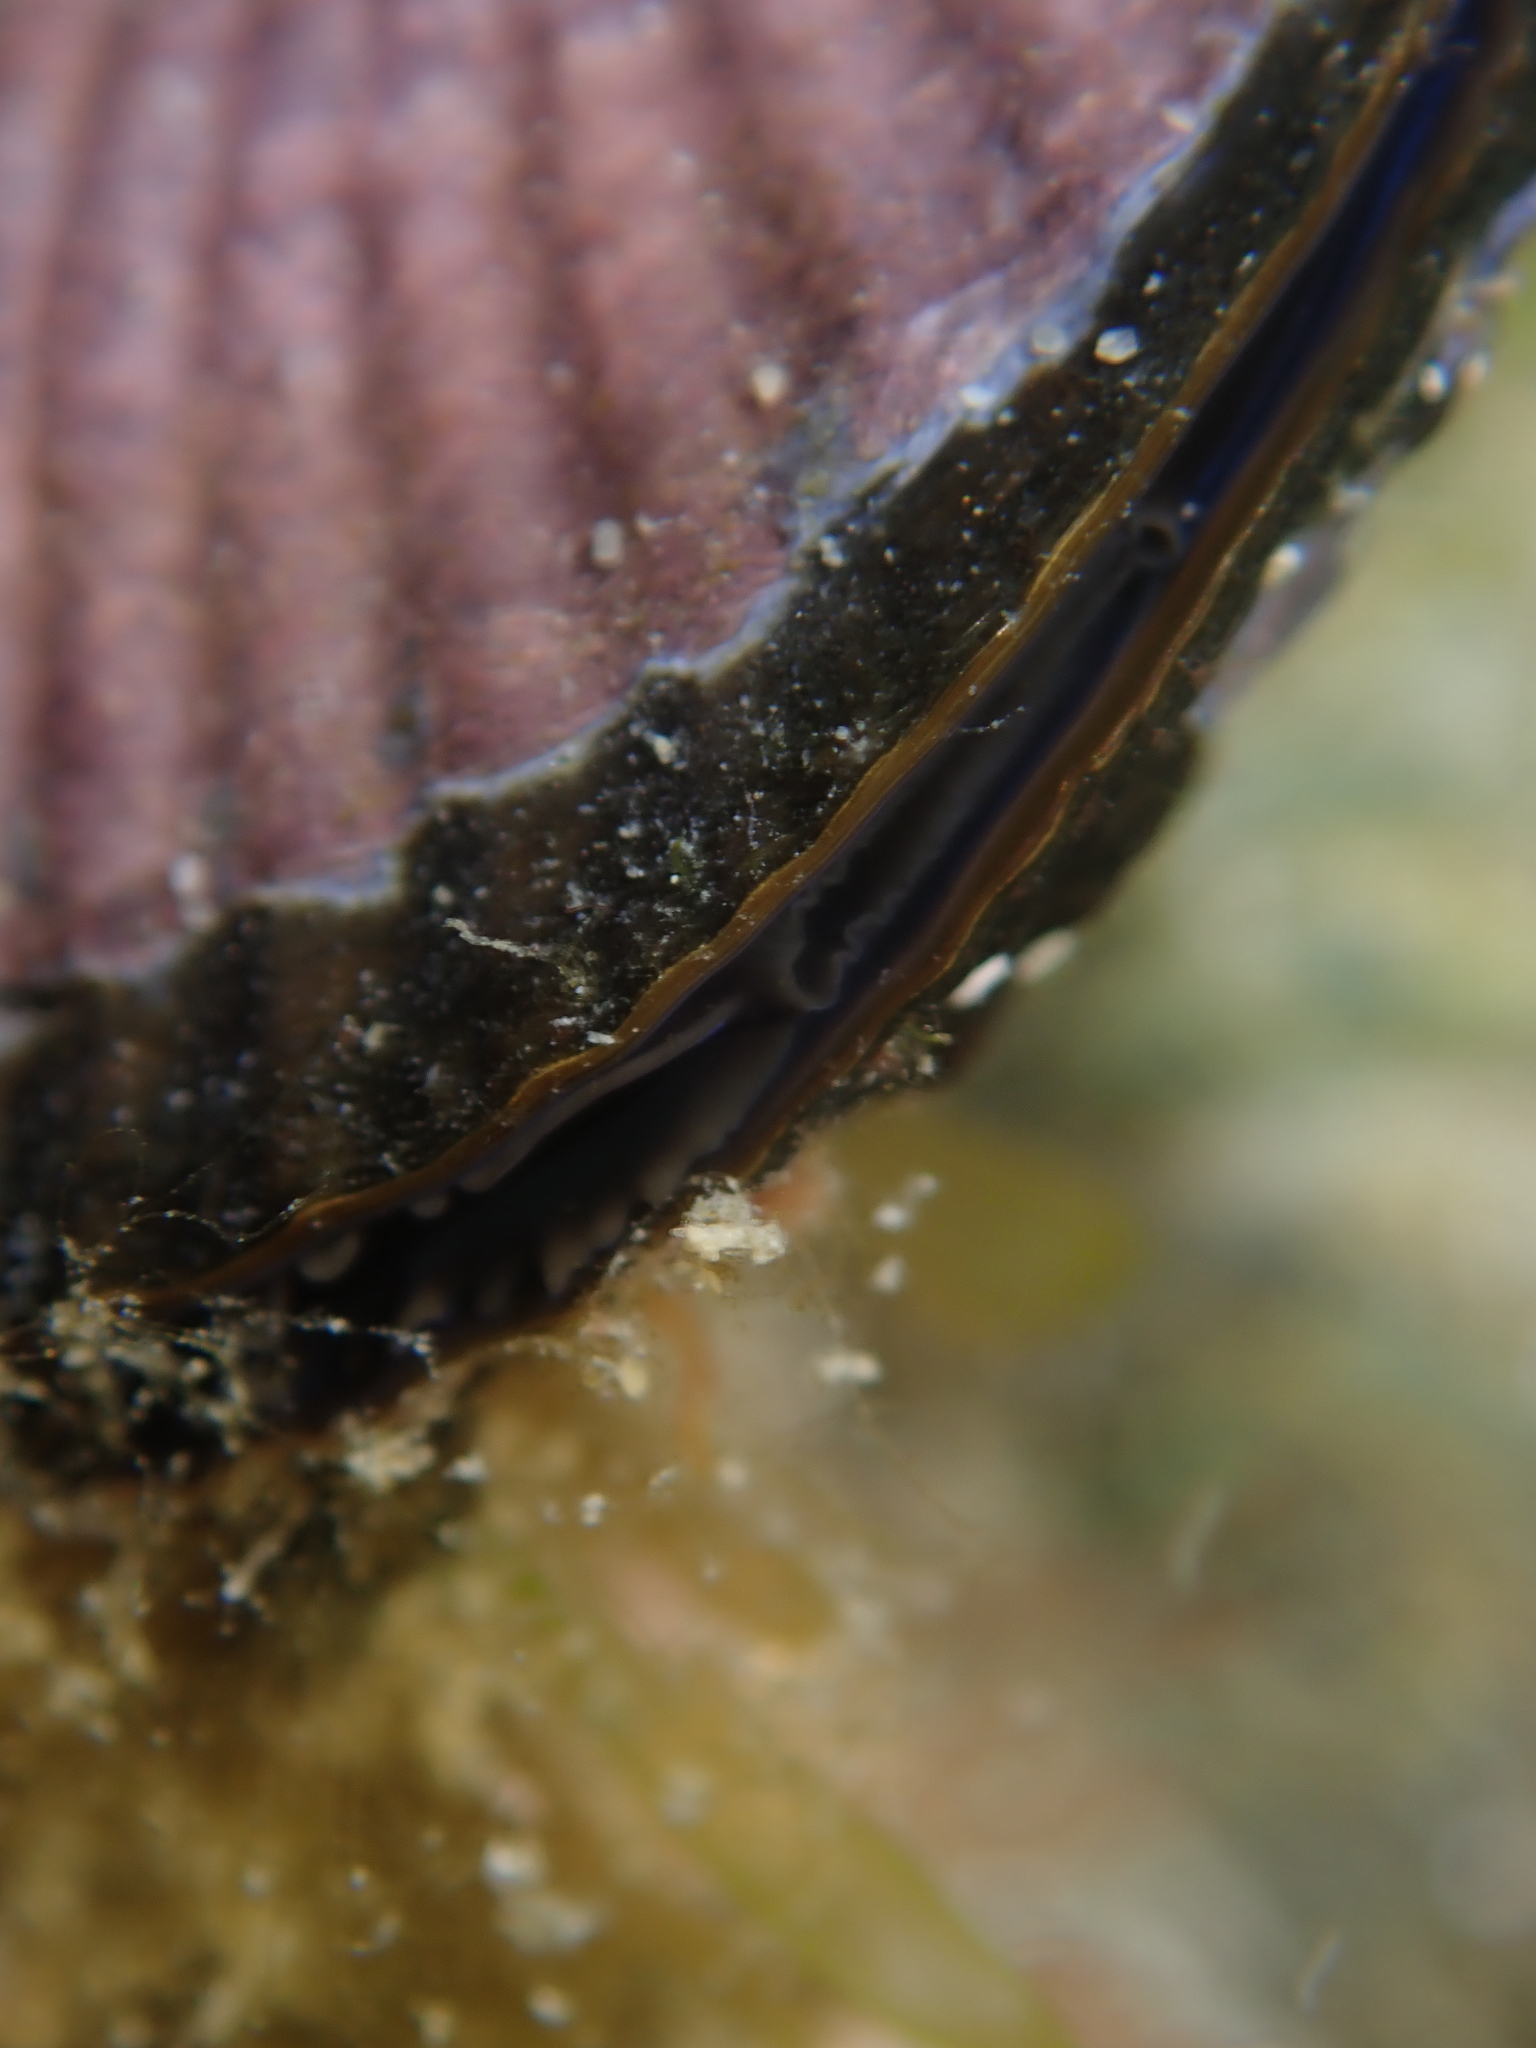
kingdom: Animalia
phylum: Mollusca
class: Bivalvia
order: Mytilida
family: Mytilidae
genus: Aulacomya
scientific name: Aulacomya maoriana
